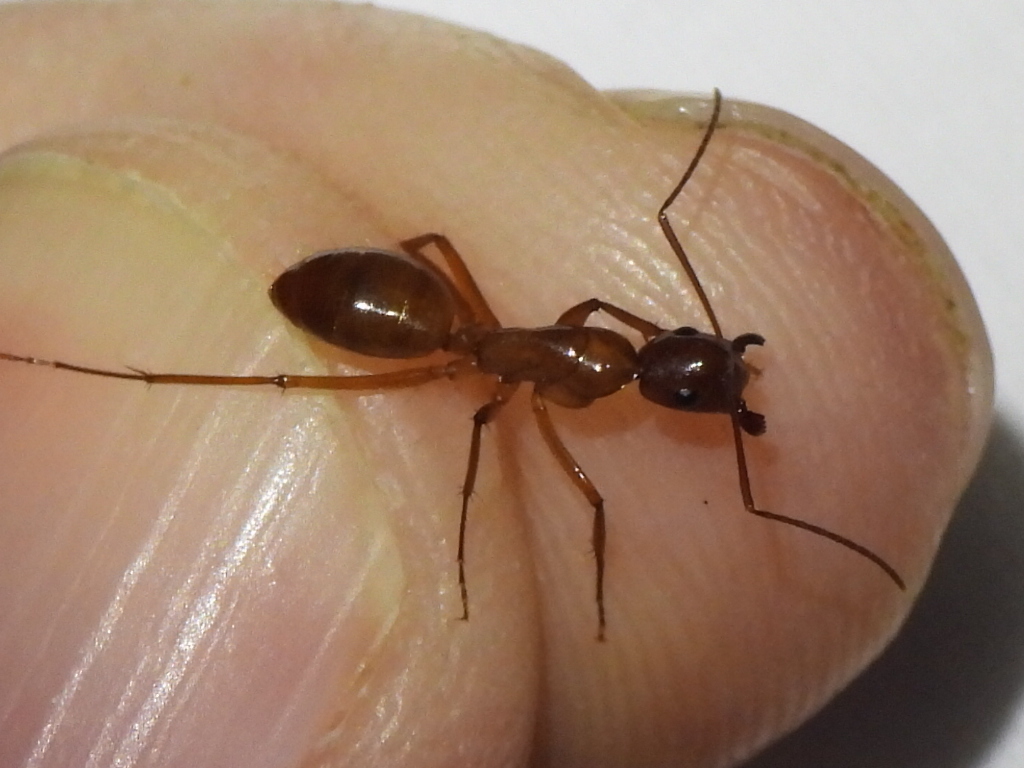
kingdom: Animalia
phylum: Arthropoda
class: Insecta
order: Hymenoptera
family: Formicidae
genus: Camponotus
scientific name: Camponotus castaneus
